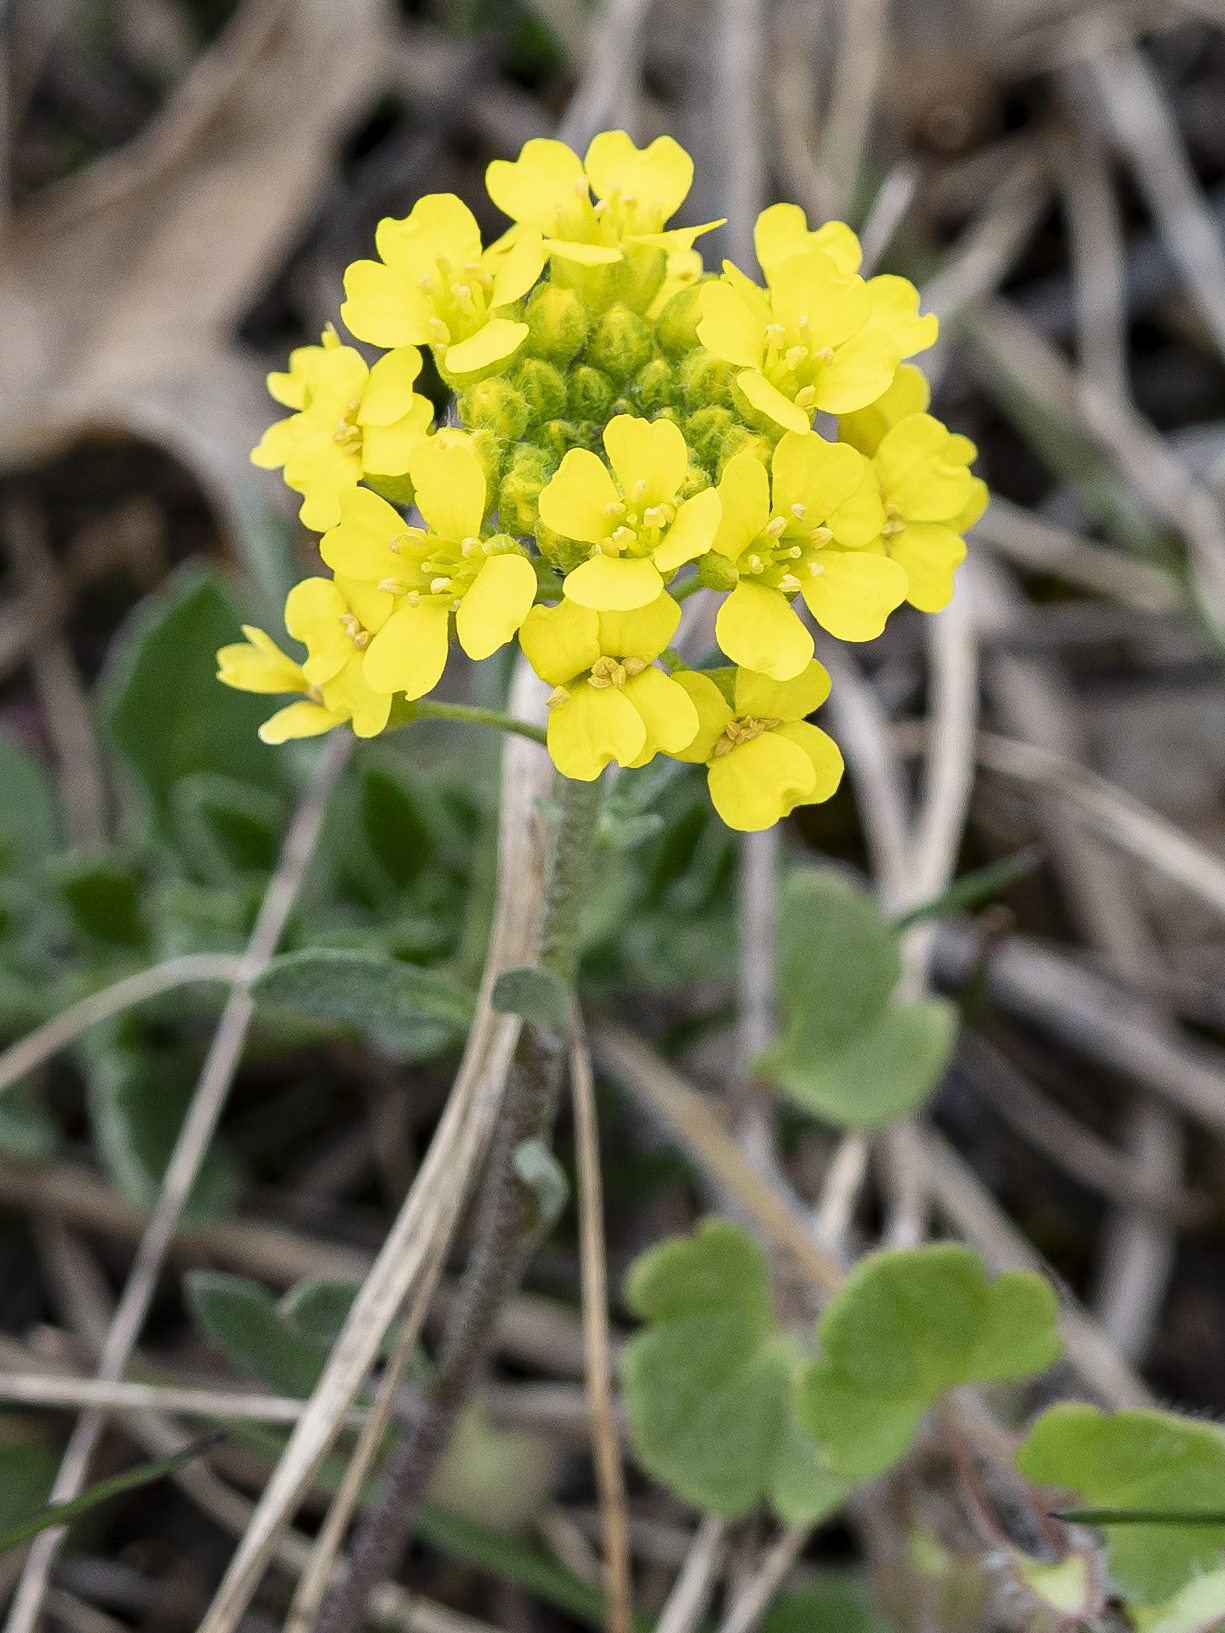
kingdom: Plantae
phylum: Tracheophyta
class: Magnoliopsida
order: Brassicales
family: Brassicaceae
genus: Alyssum
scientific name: Alyssum gmelinii
